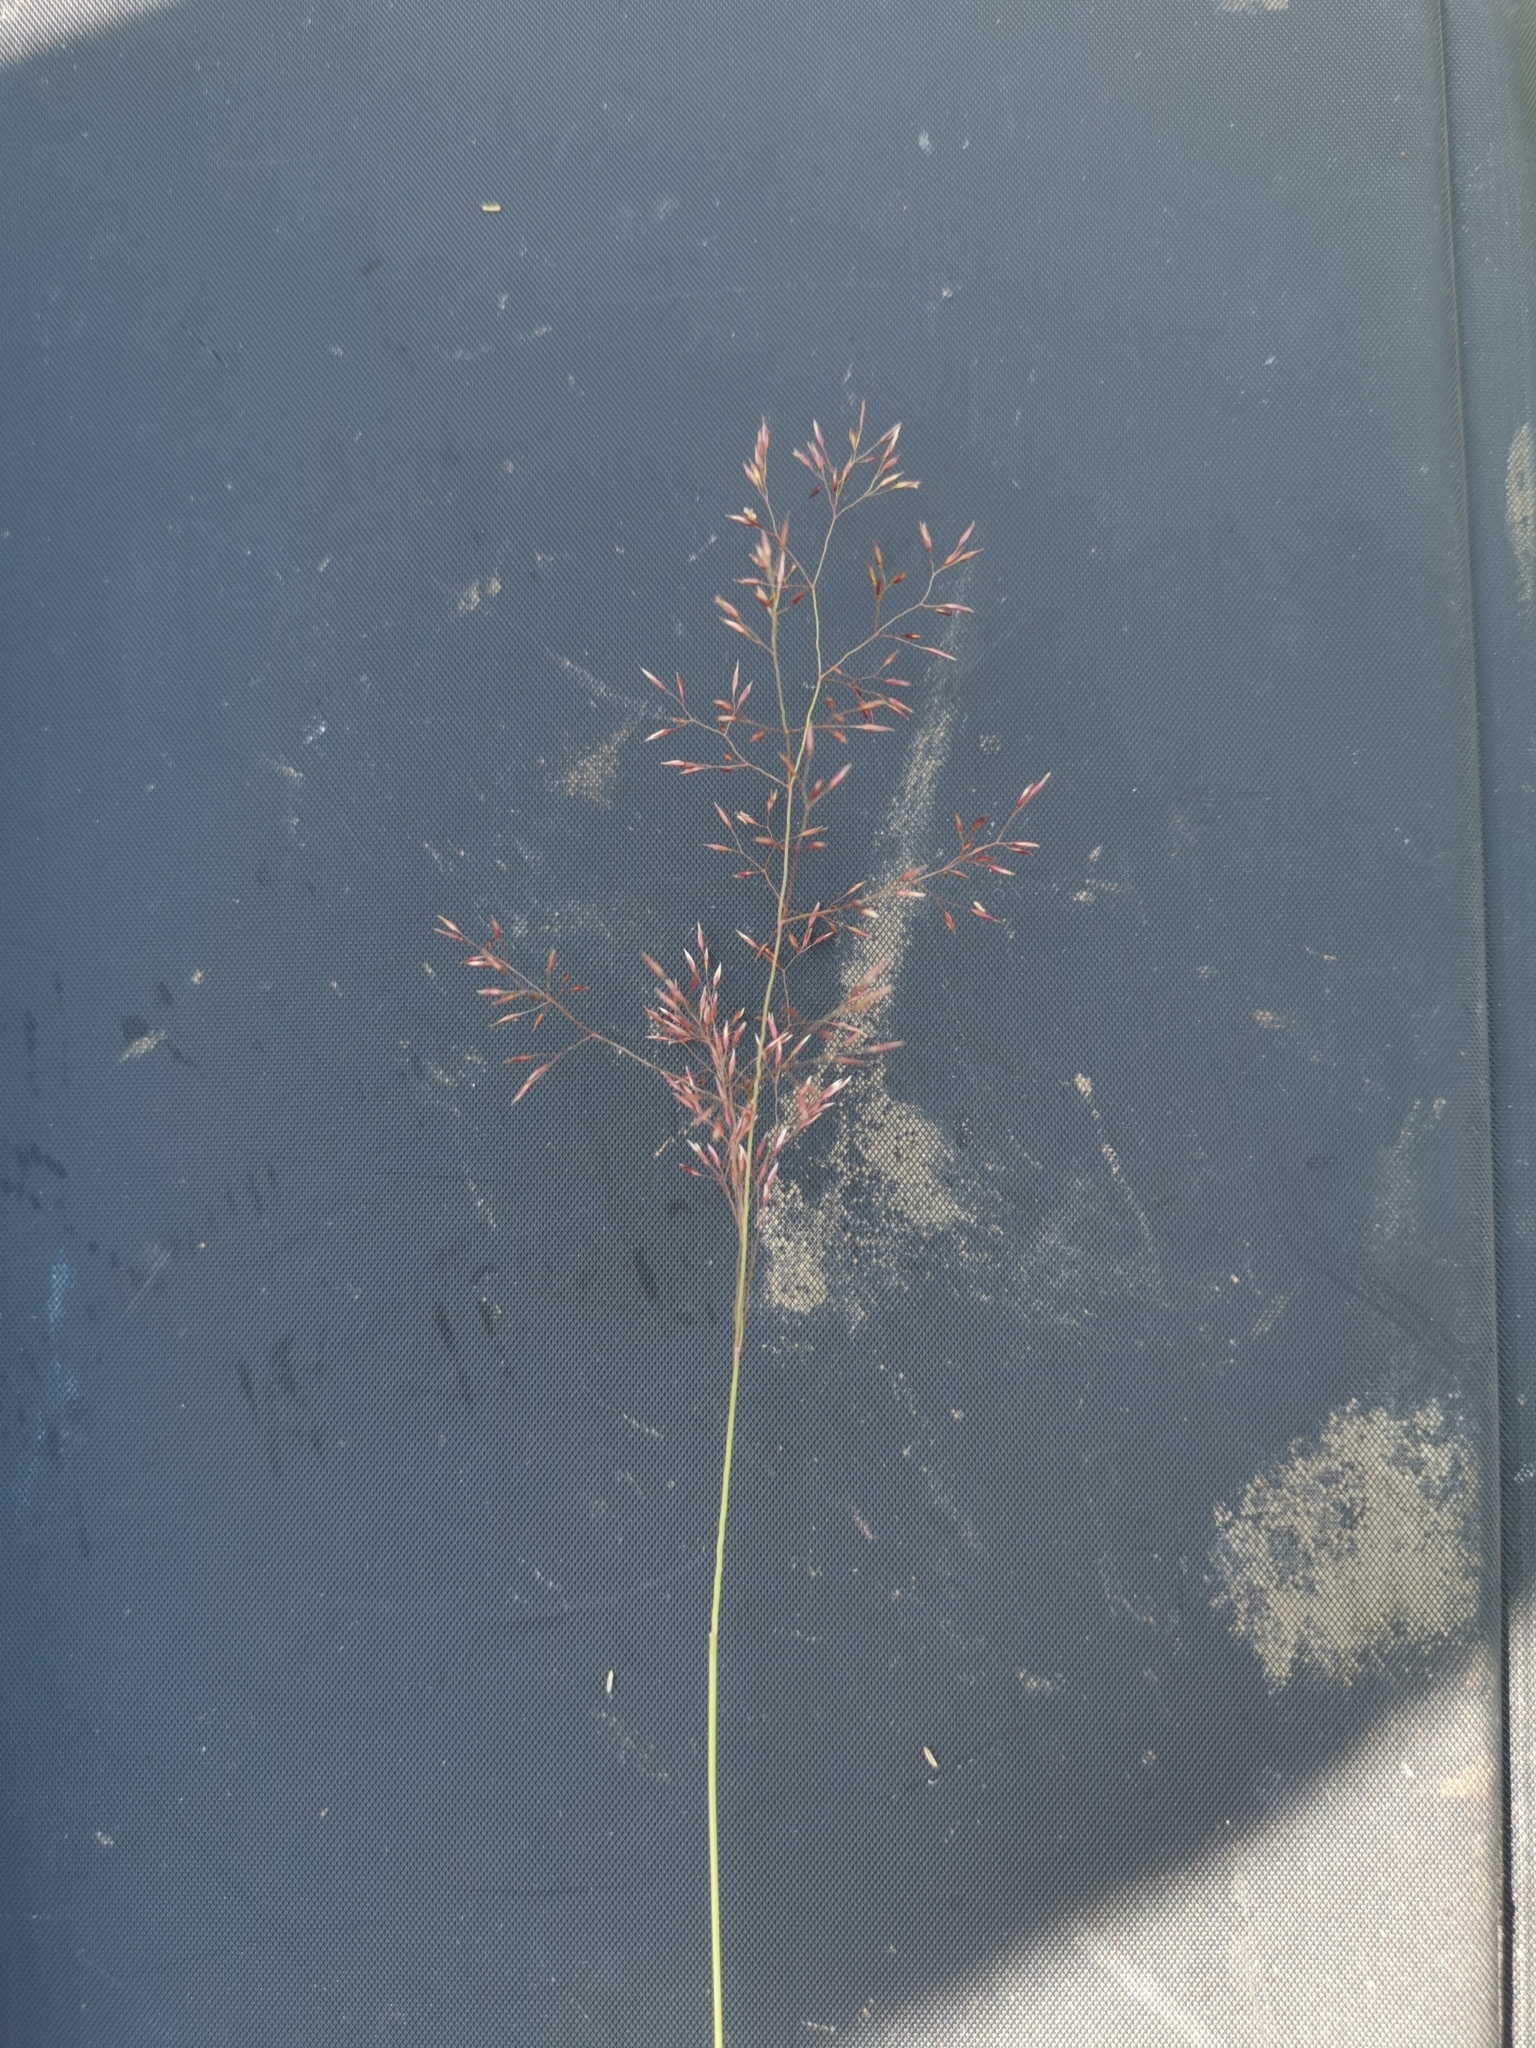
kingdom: Plantae
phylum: Tracheophyta
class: Liliopsida
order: Poales
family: Poaceae
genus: Agrostis
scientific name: Agrostis capillaris
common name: Colonial bentgrass
